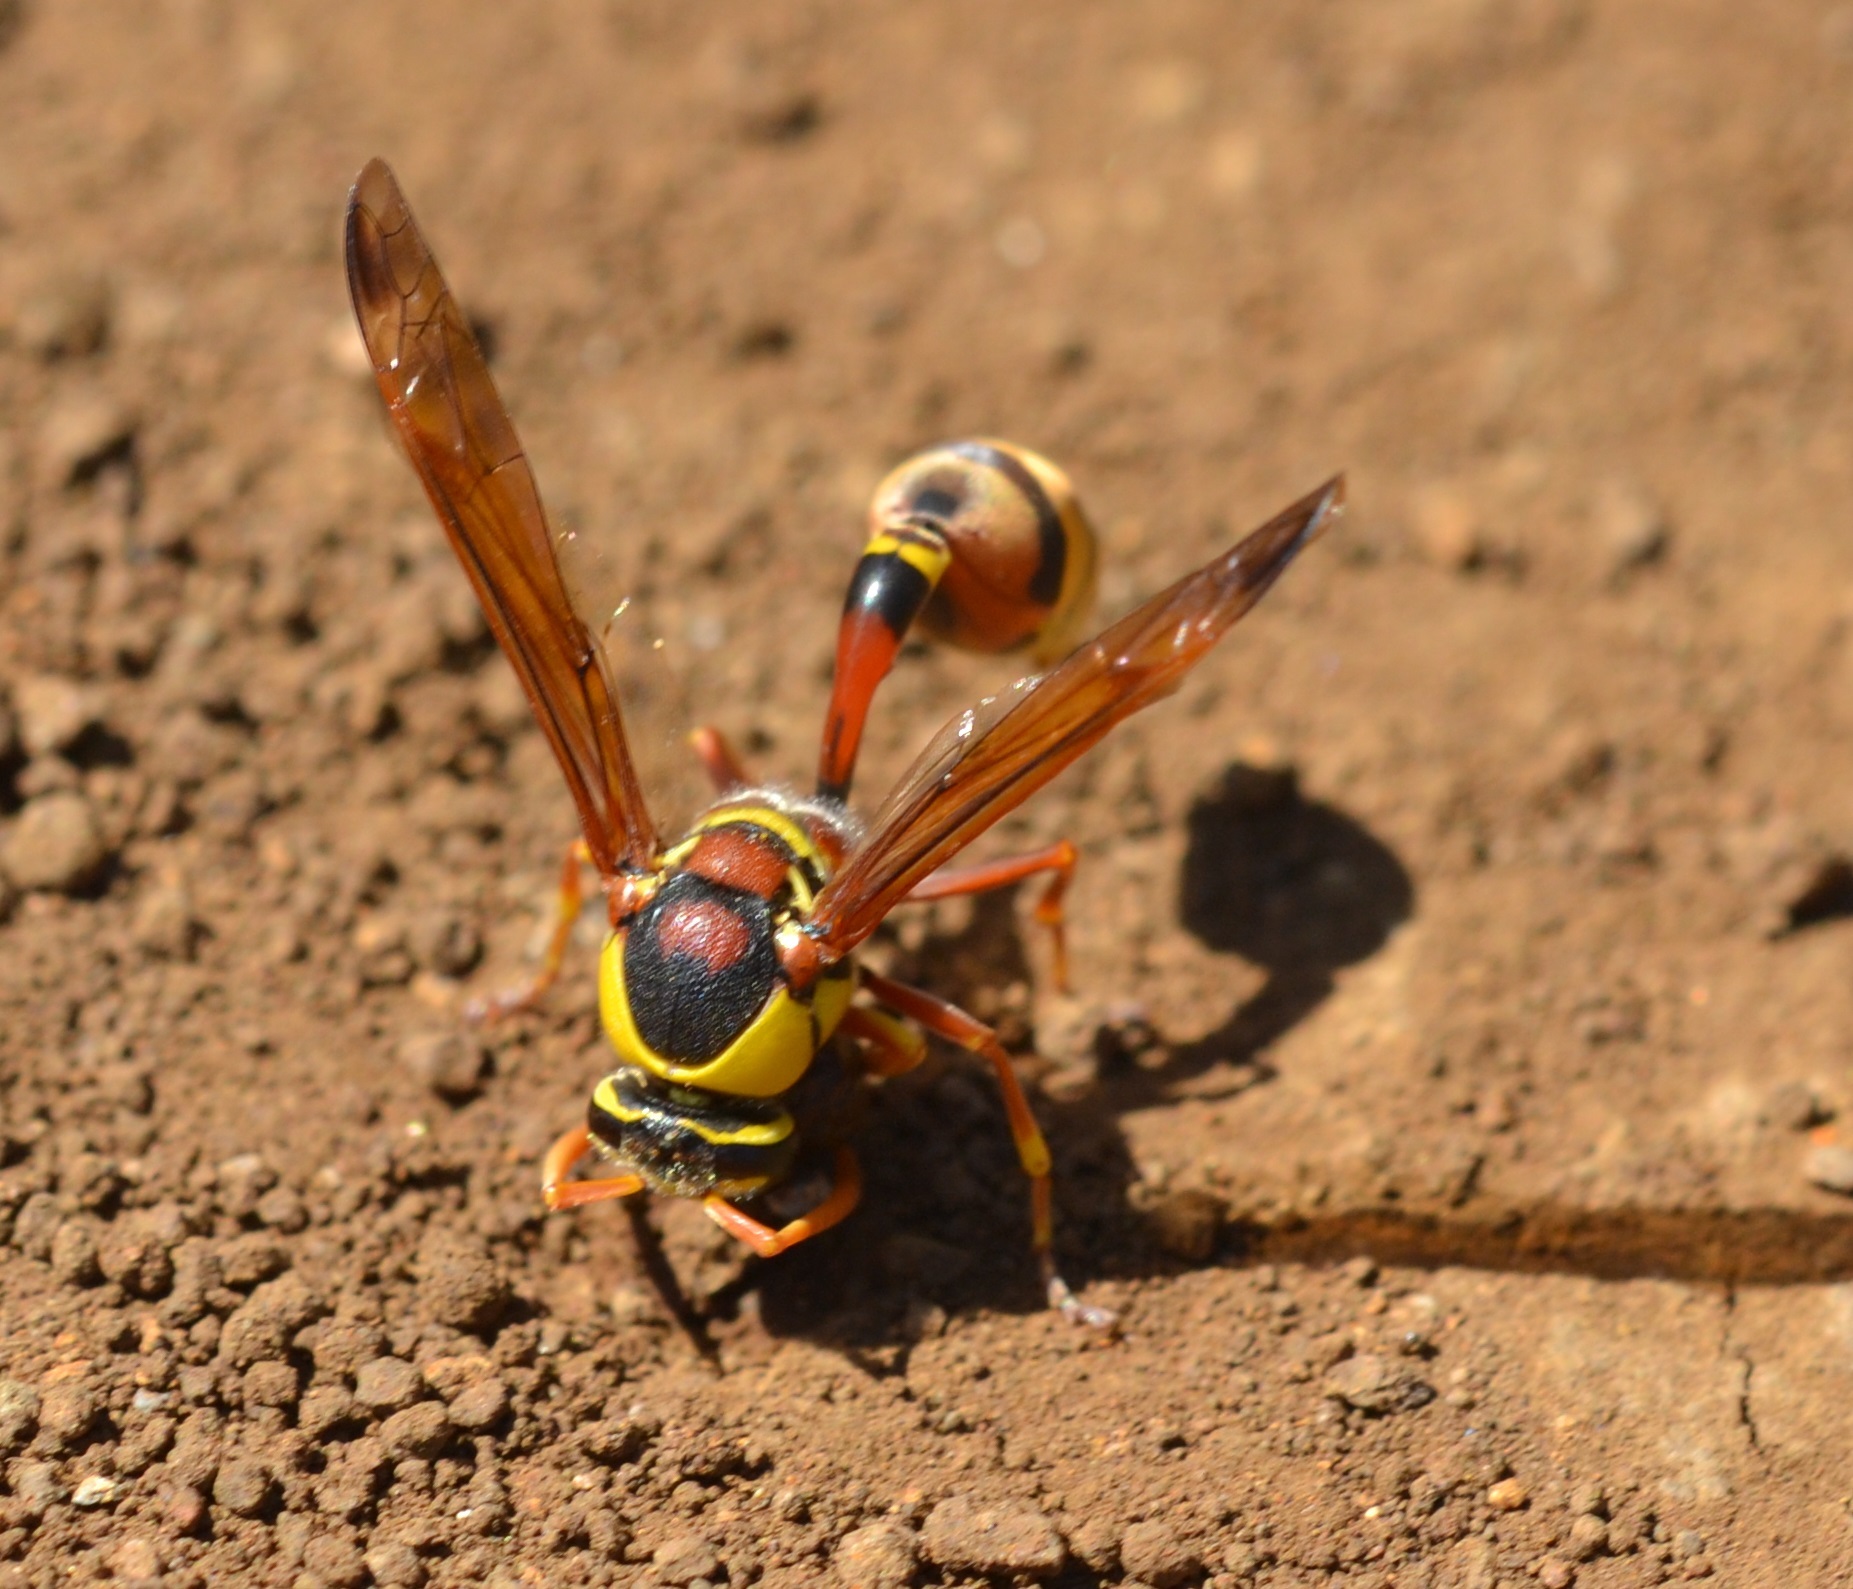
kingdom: Animalia
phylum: Arthropoda
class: Insecta
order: Hymenoptera
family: Eumenidae
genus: Delta
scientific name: Delta esuriens
